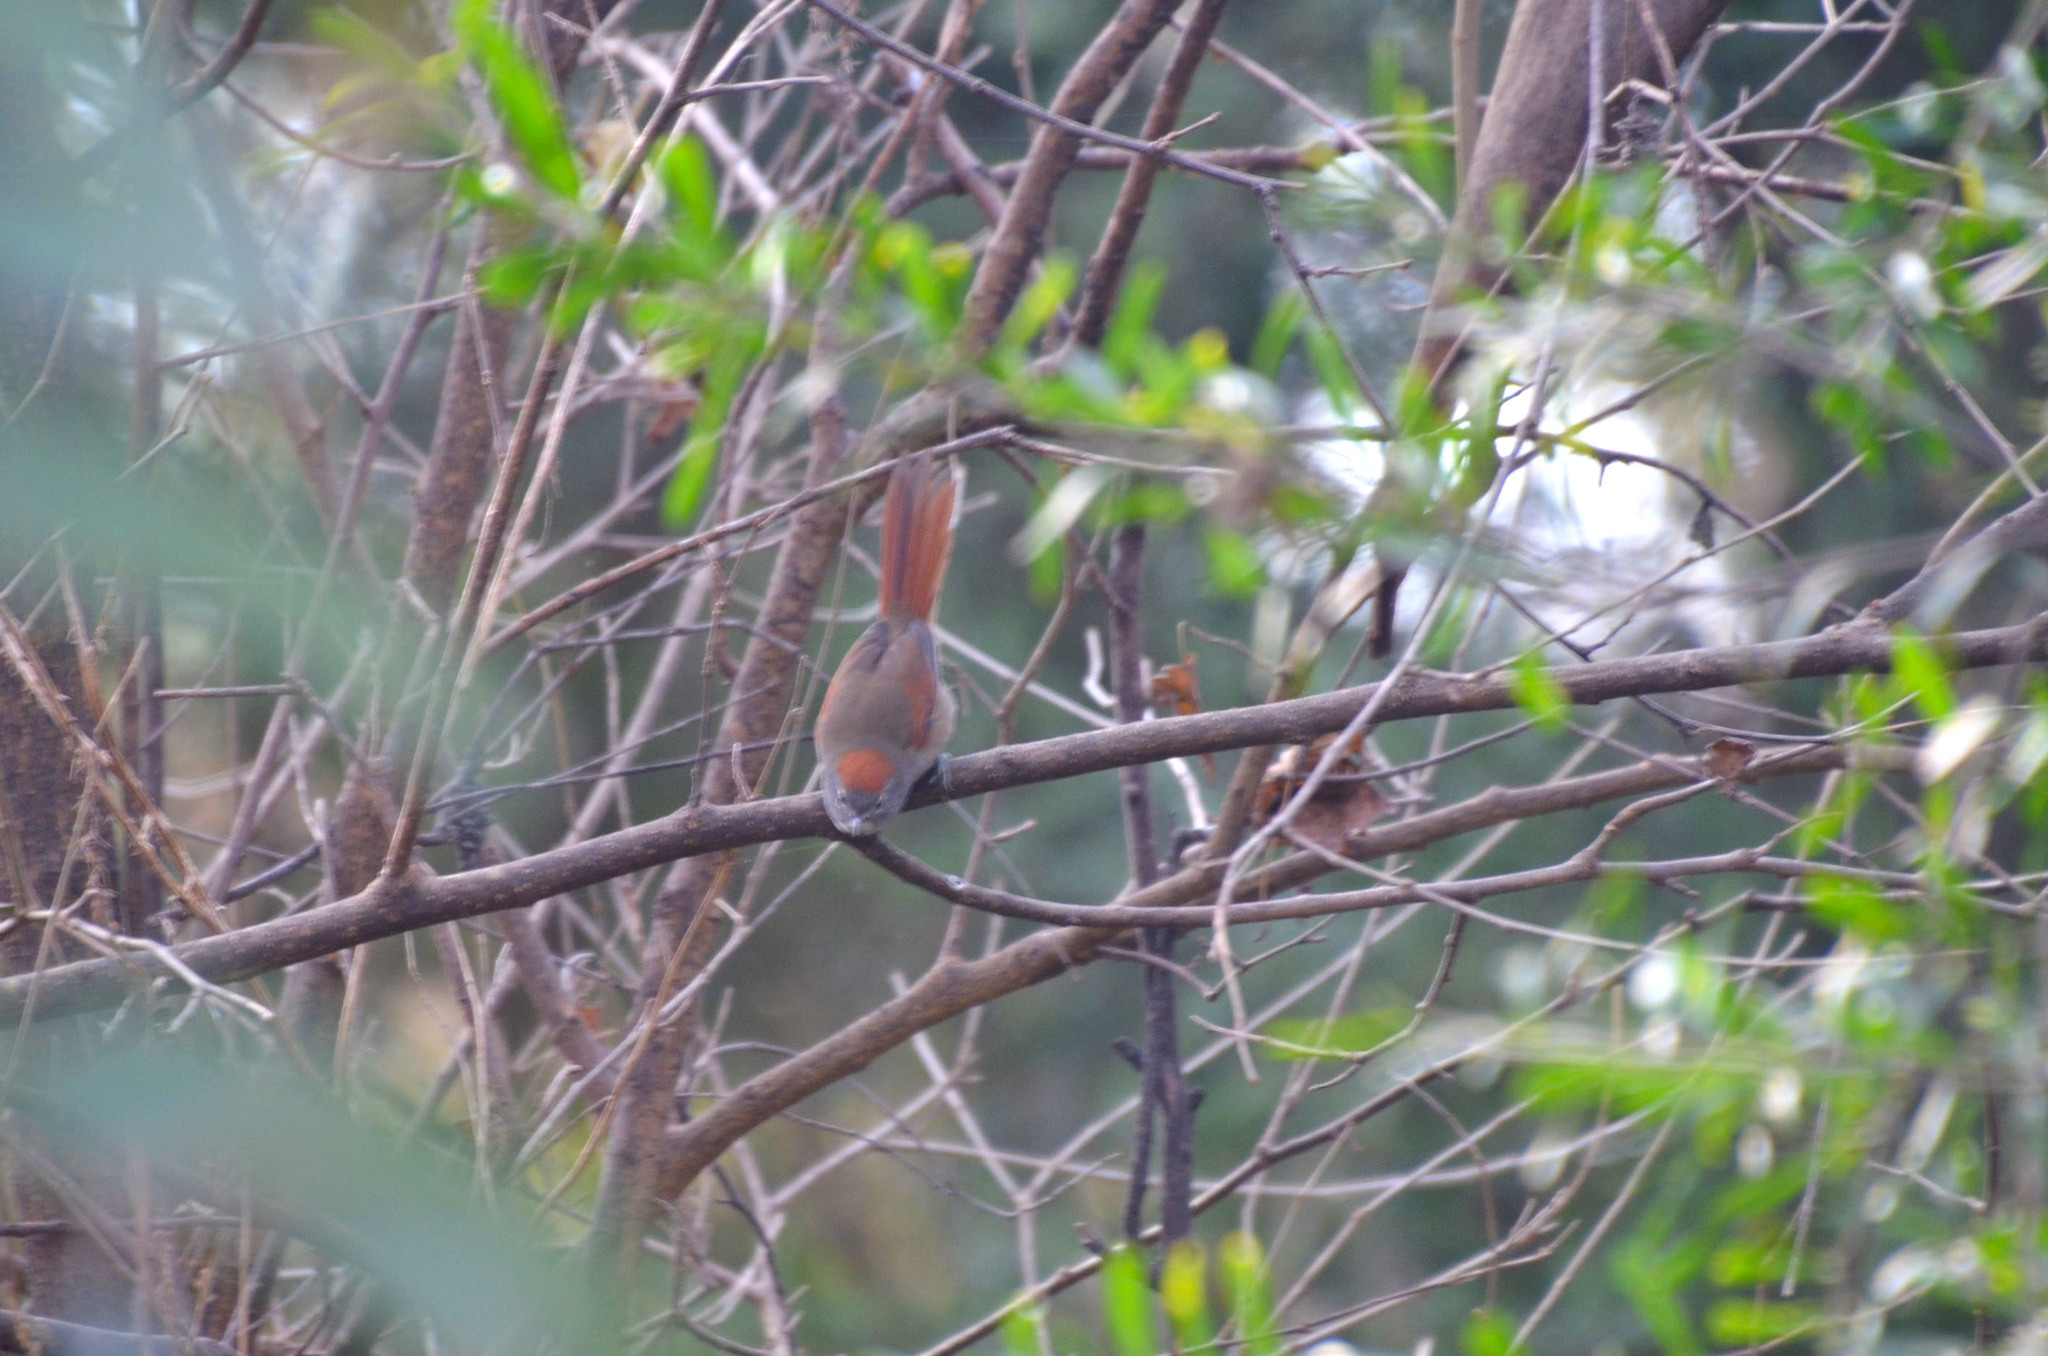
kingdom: Animalia
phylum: Chordata
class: Aves
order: Passeriformes
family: Furnariidae
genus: Synallaxis
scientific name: Synallaxis frontalis
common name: Sooty-fronted spinetail
